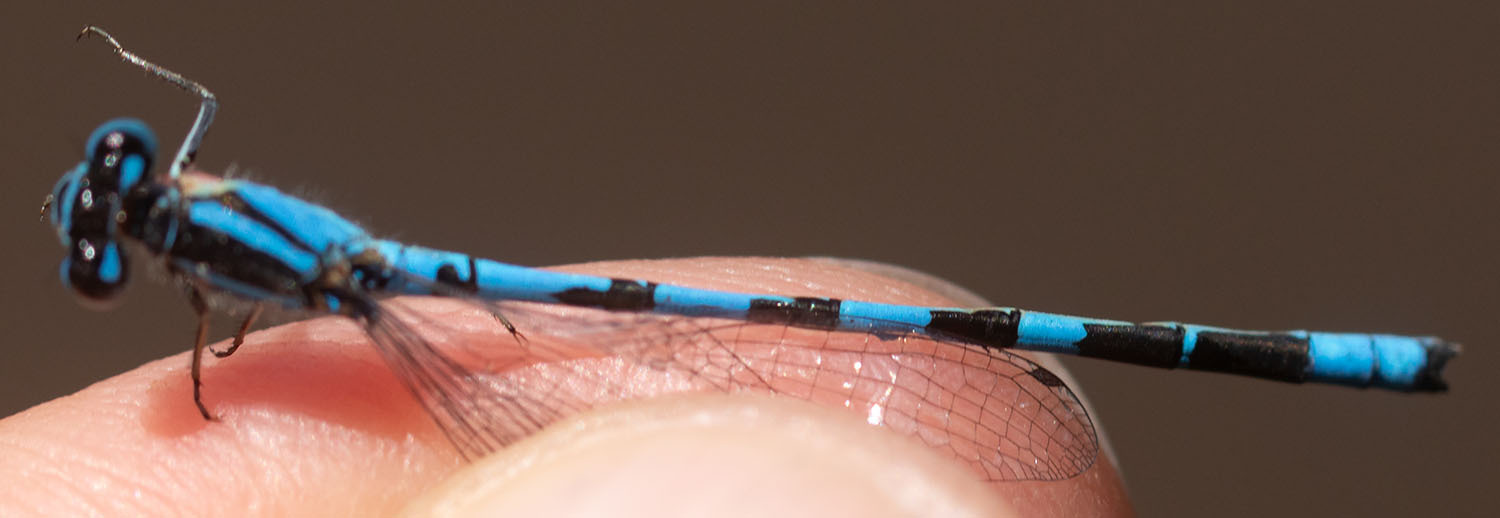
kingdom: Animalia
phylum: Arthropoda
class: Insecta
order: Odonata
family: Coenagrionidae
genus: Enallagma
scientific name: Enallagma carunculatum
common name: Tule bluet
